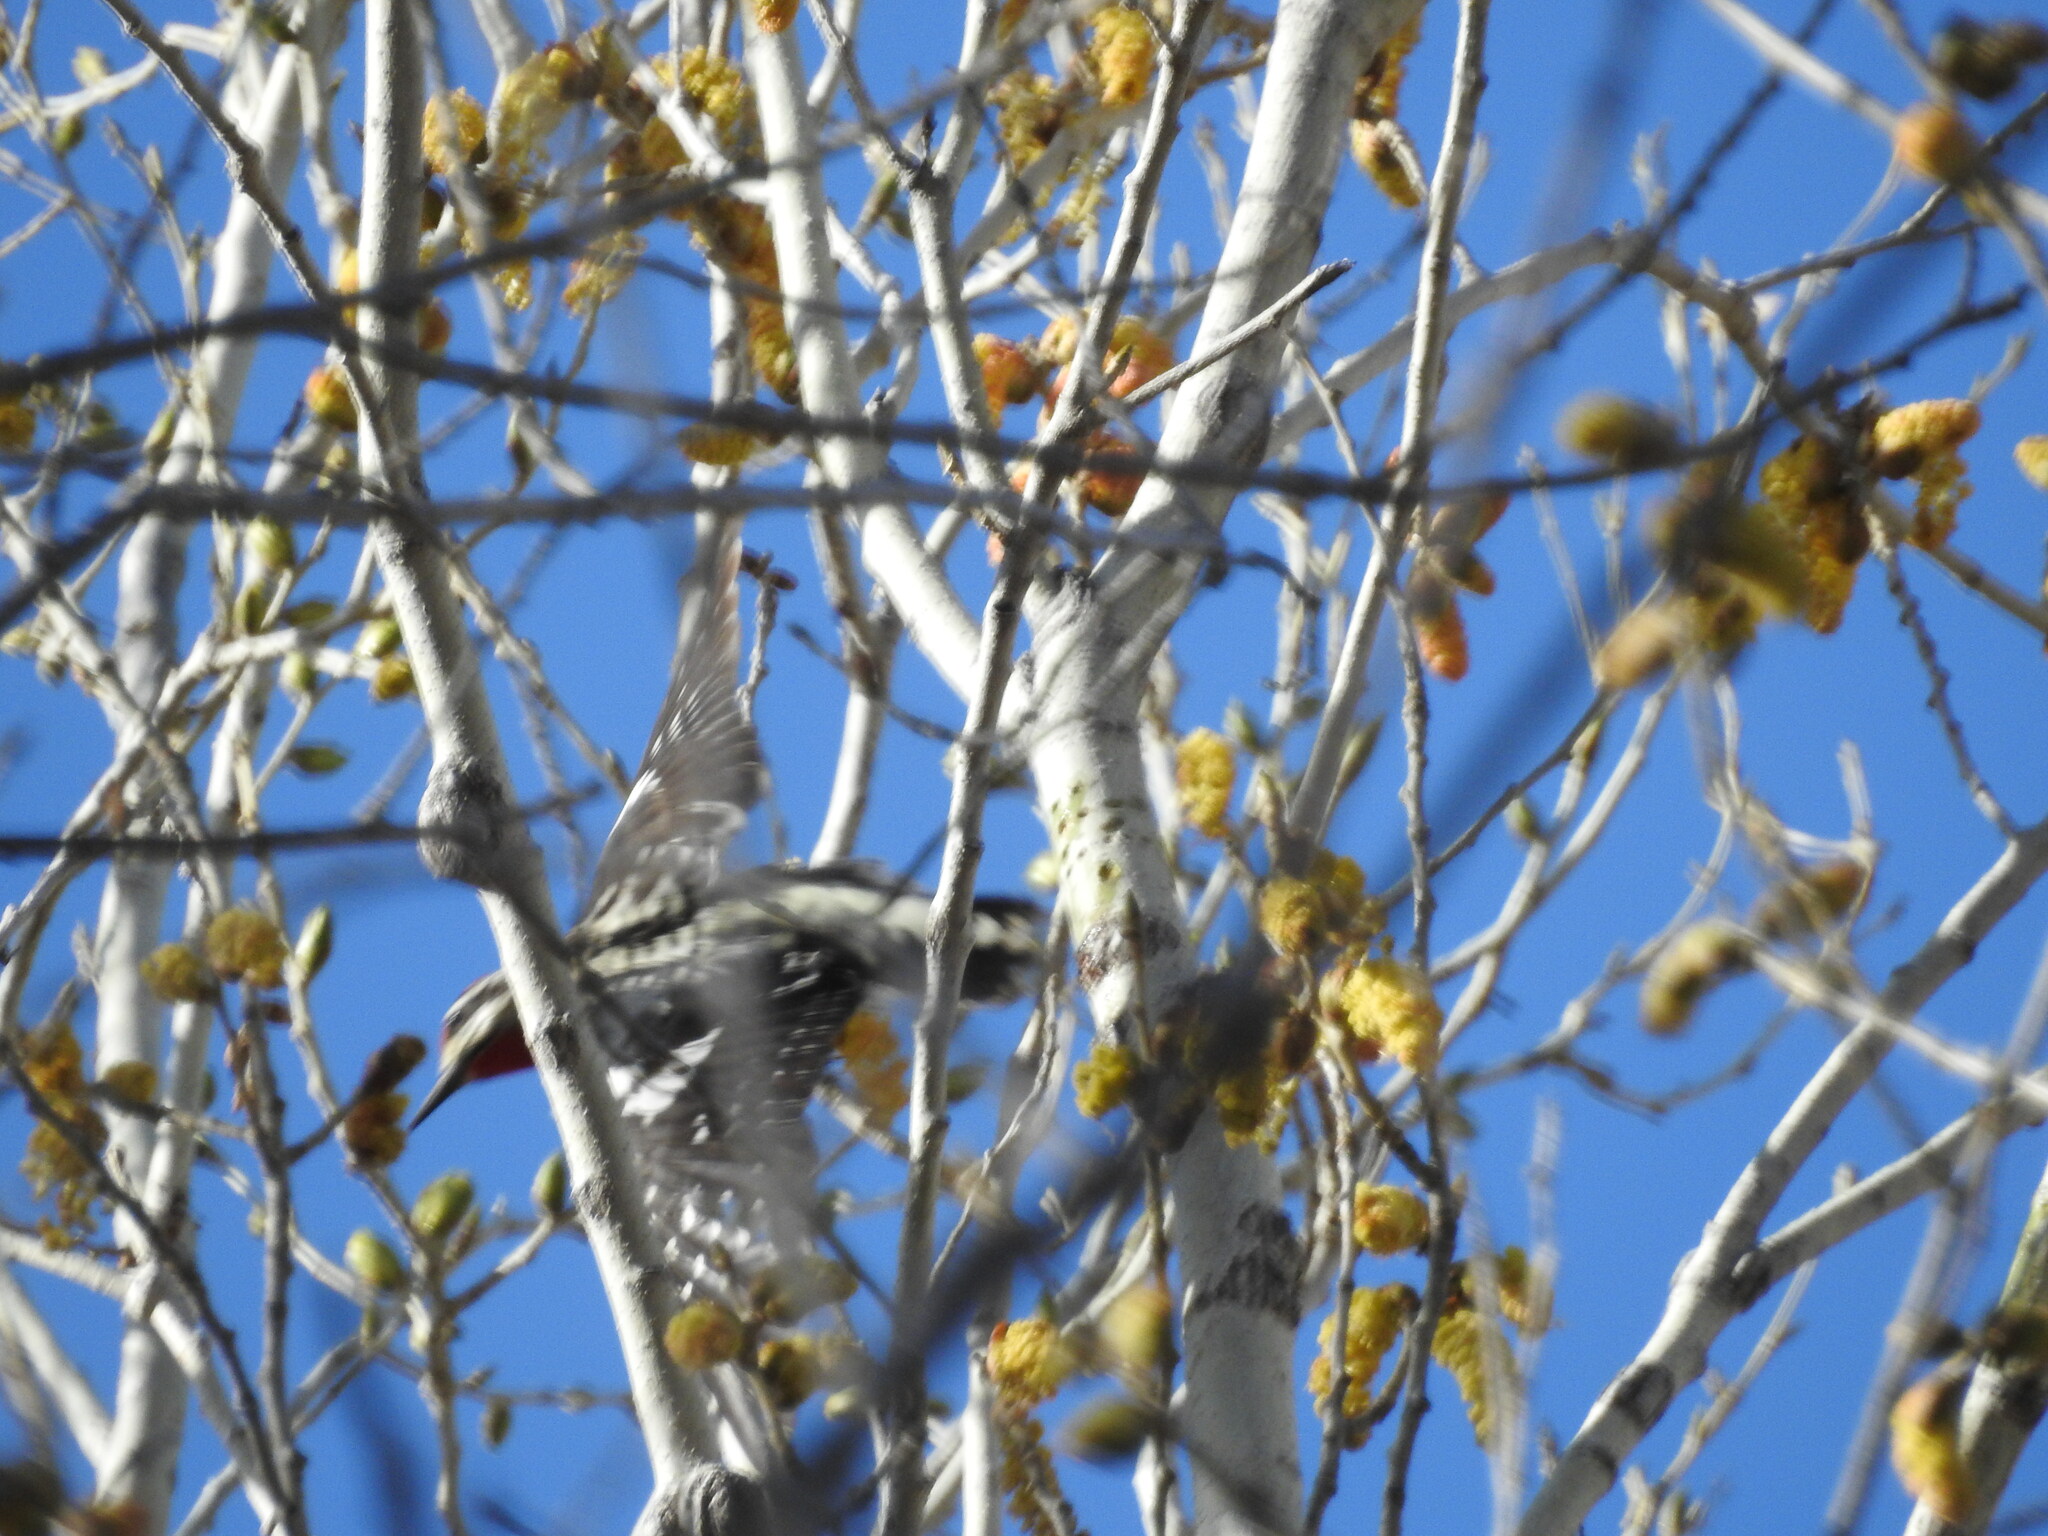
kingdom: Animalia
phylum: Chordata
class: Aves
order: Piciformes
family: Picidae
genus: Sphyrapicus
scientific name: Sphyrapicus nuchalis
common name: Red-naped sapsucker
